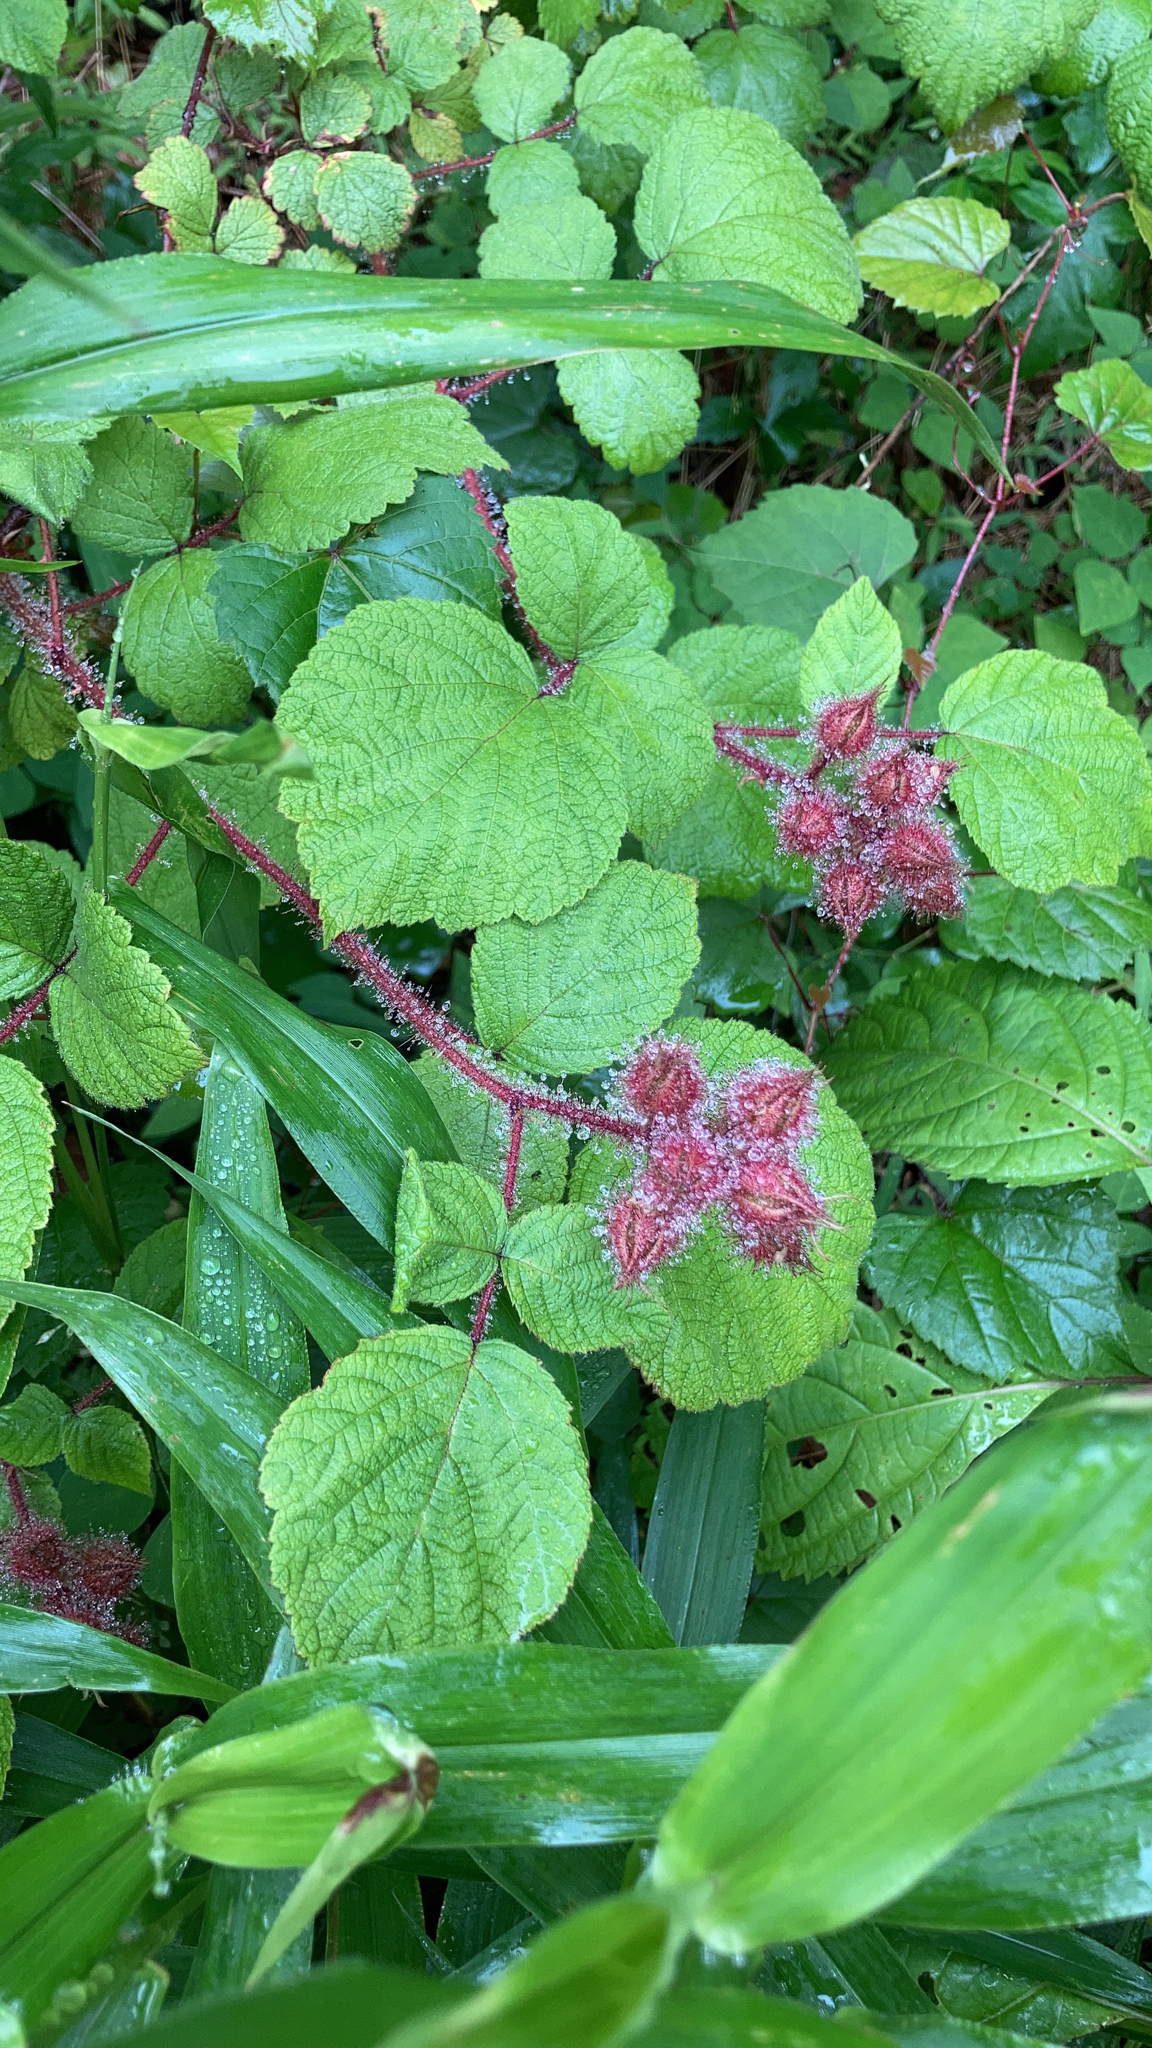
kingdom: Plantae
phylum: Tracheophyta
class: Magnoliopsida
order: Rosales
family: Rosaceae
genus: Rubus
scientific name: Rubus phoenicolasius
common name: Japanese wineberry
